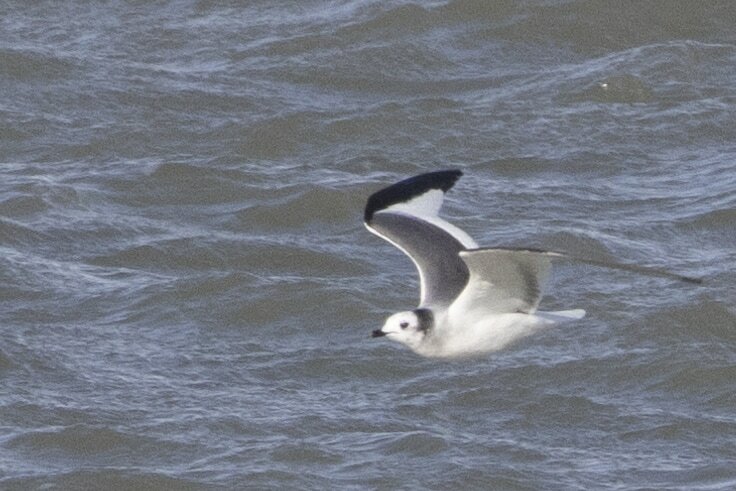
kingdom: Animalia
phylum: Chordata
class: Aves
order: Charadriiformes
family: Laridae
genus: Xema
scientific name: Xema sabini
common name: Sabine's gull
